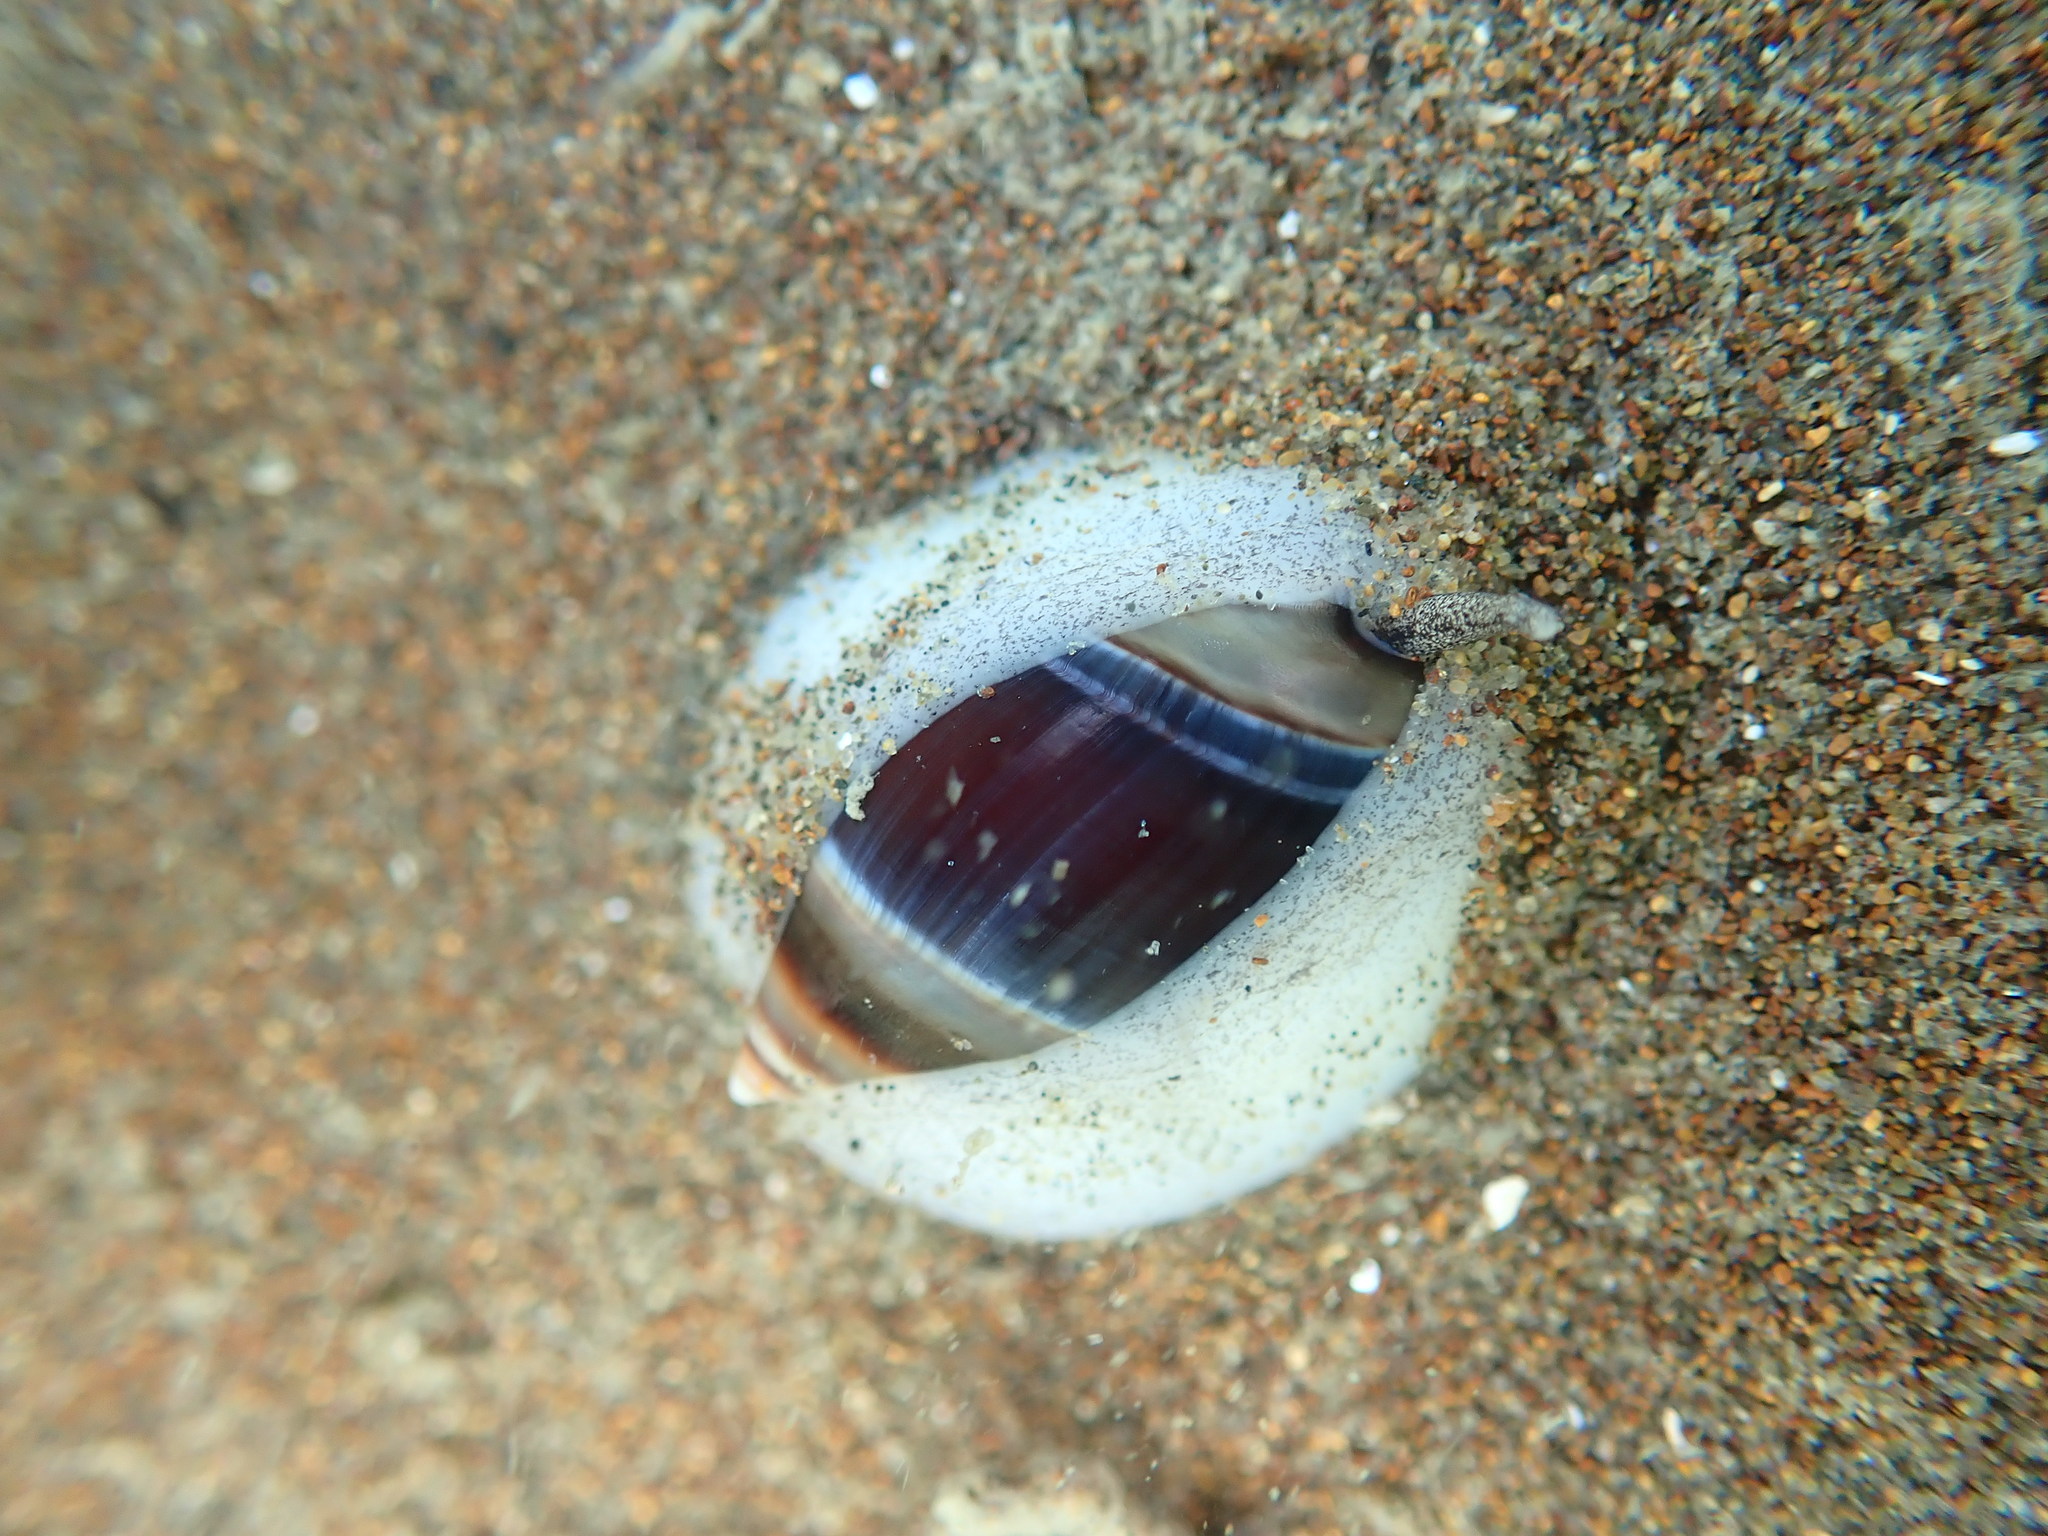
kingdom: Animalia
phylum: Mollusca
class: Gastropoda
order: Neogastropoda
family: Ancillariidae
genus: Amalda
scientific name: Amalda australis
